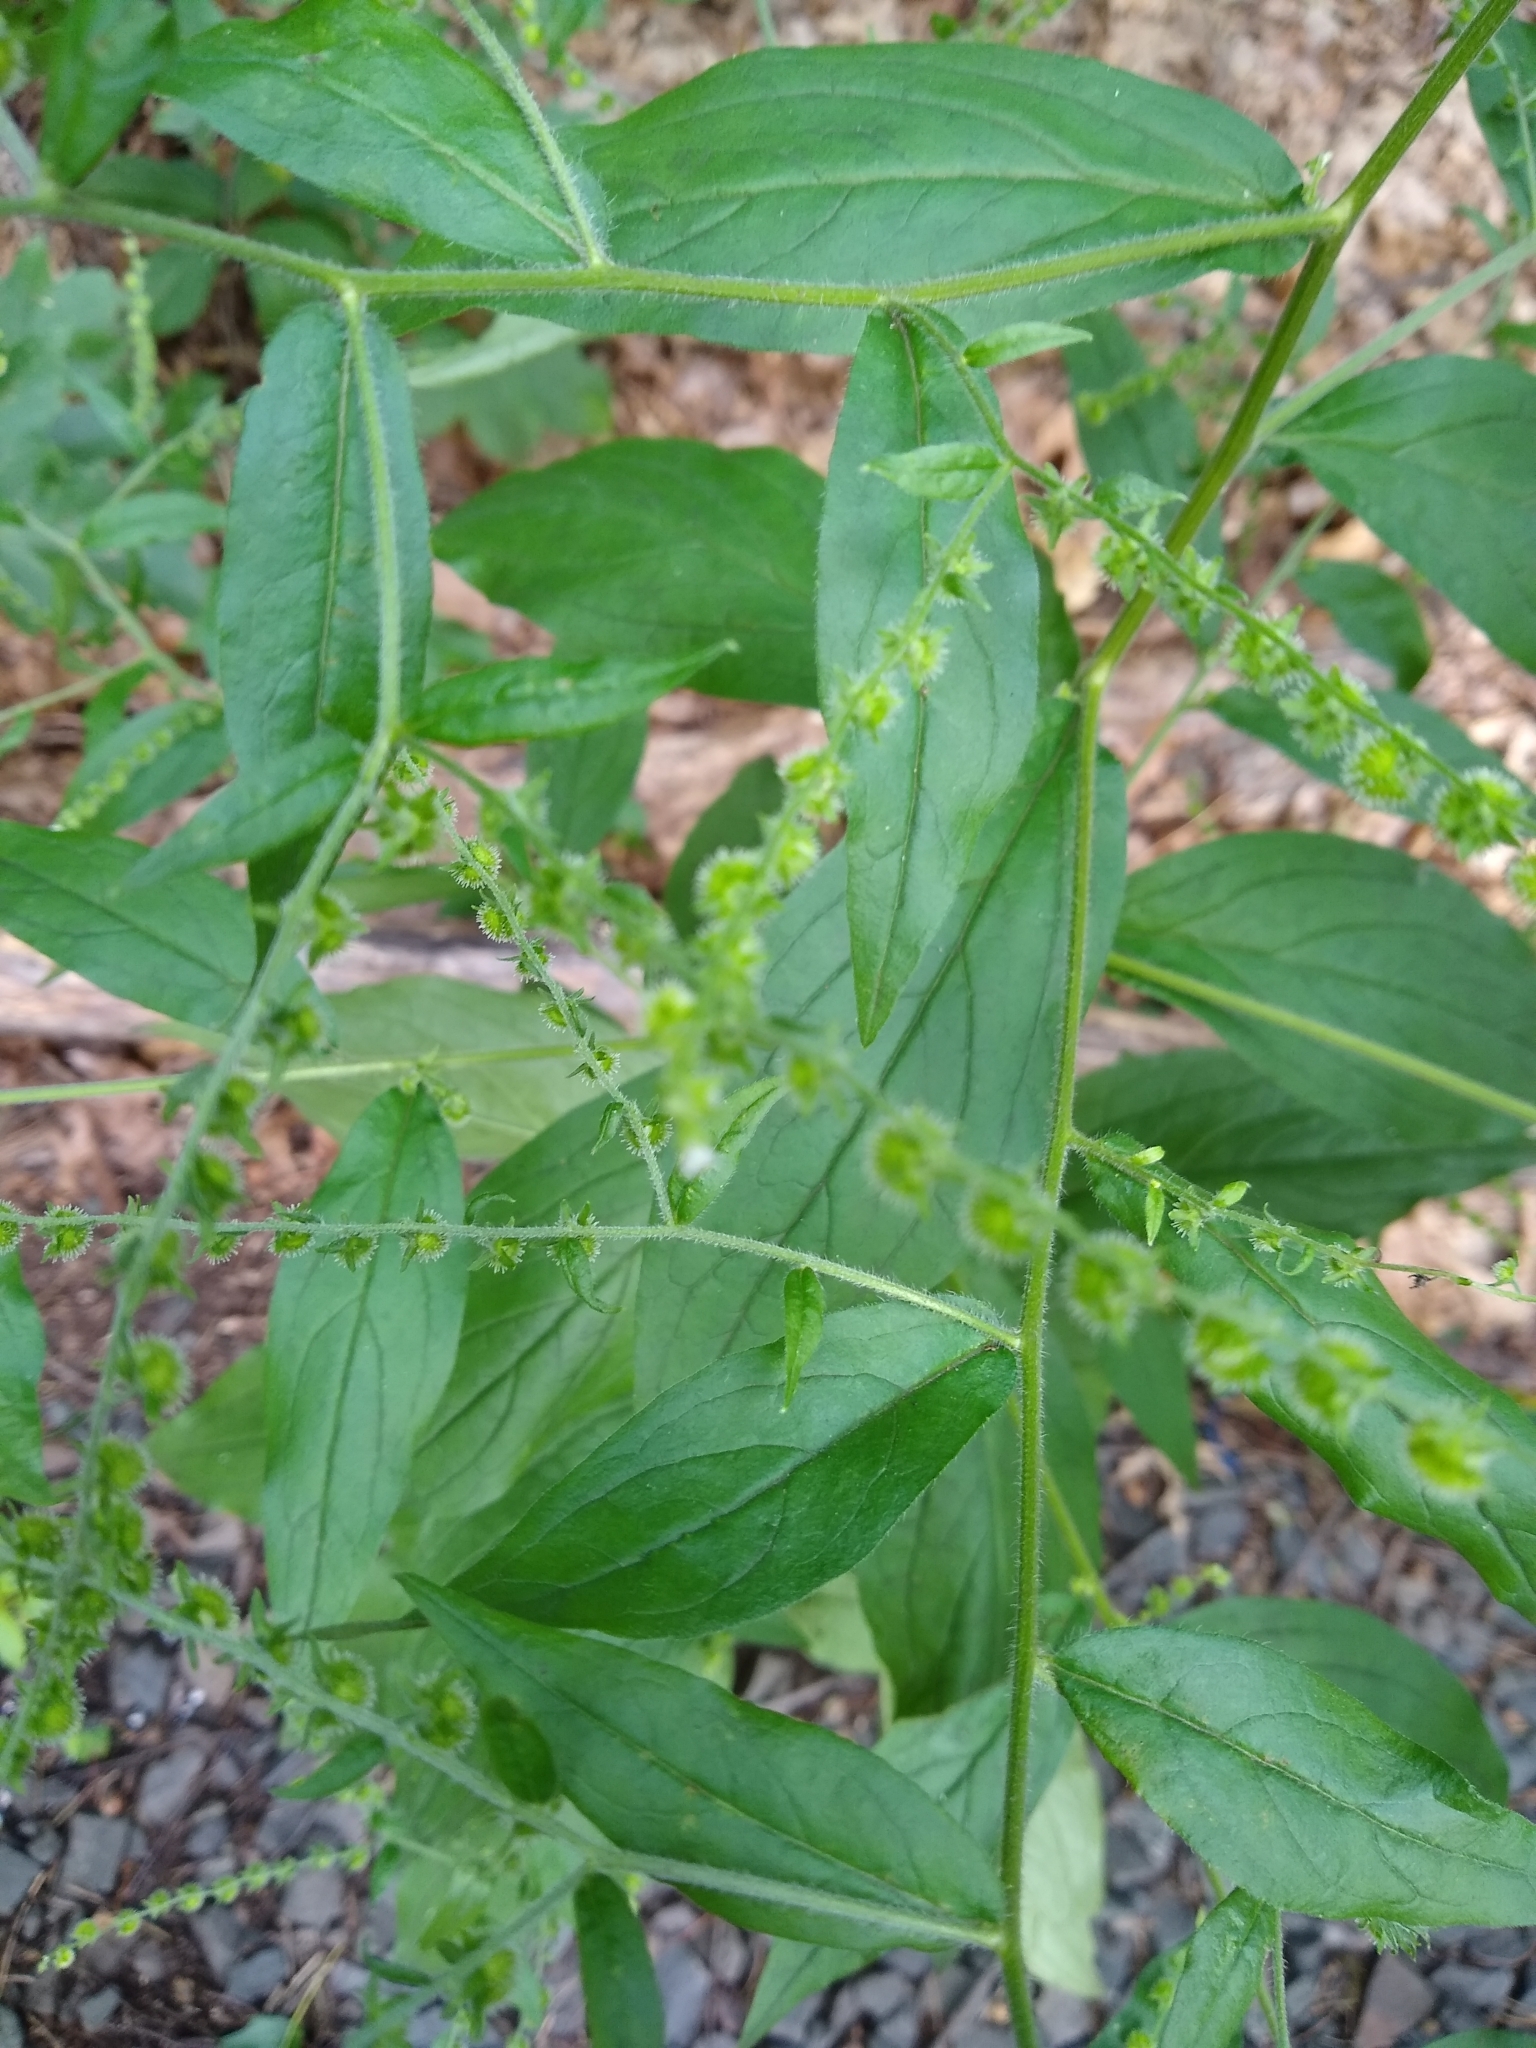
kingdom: Plantae
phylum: Tracheophyta
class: Magnoliopsida
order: Boraginales
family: Boraginaceae
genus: Hackelia
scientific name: Hackelia virginiana
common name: Beggar's-lice
